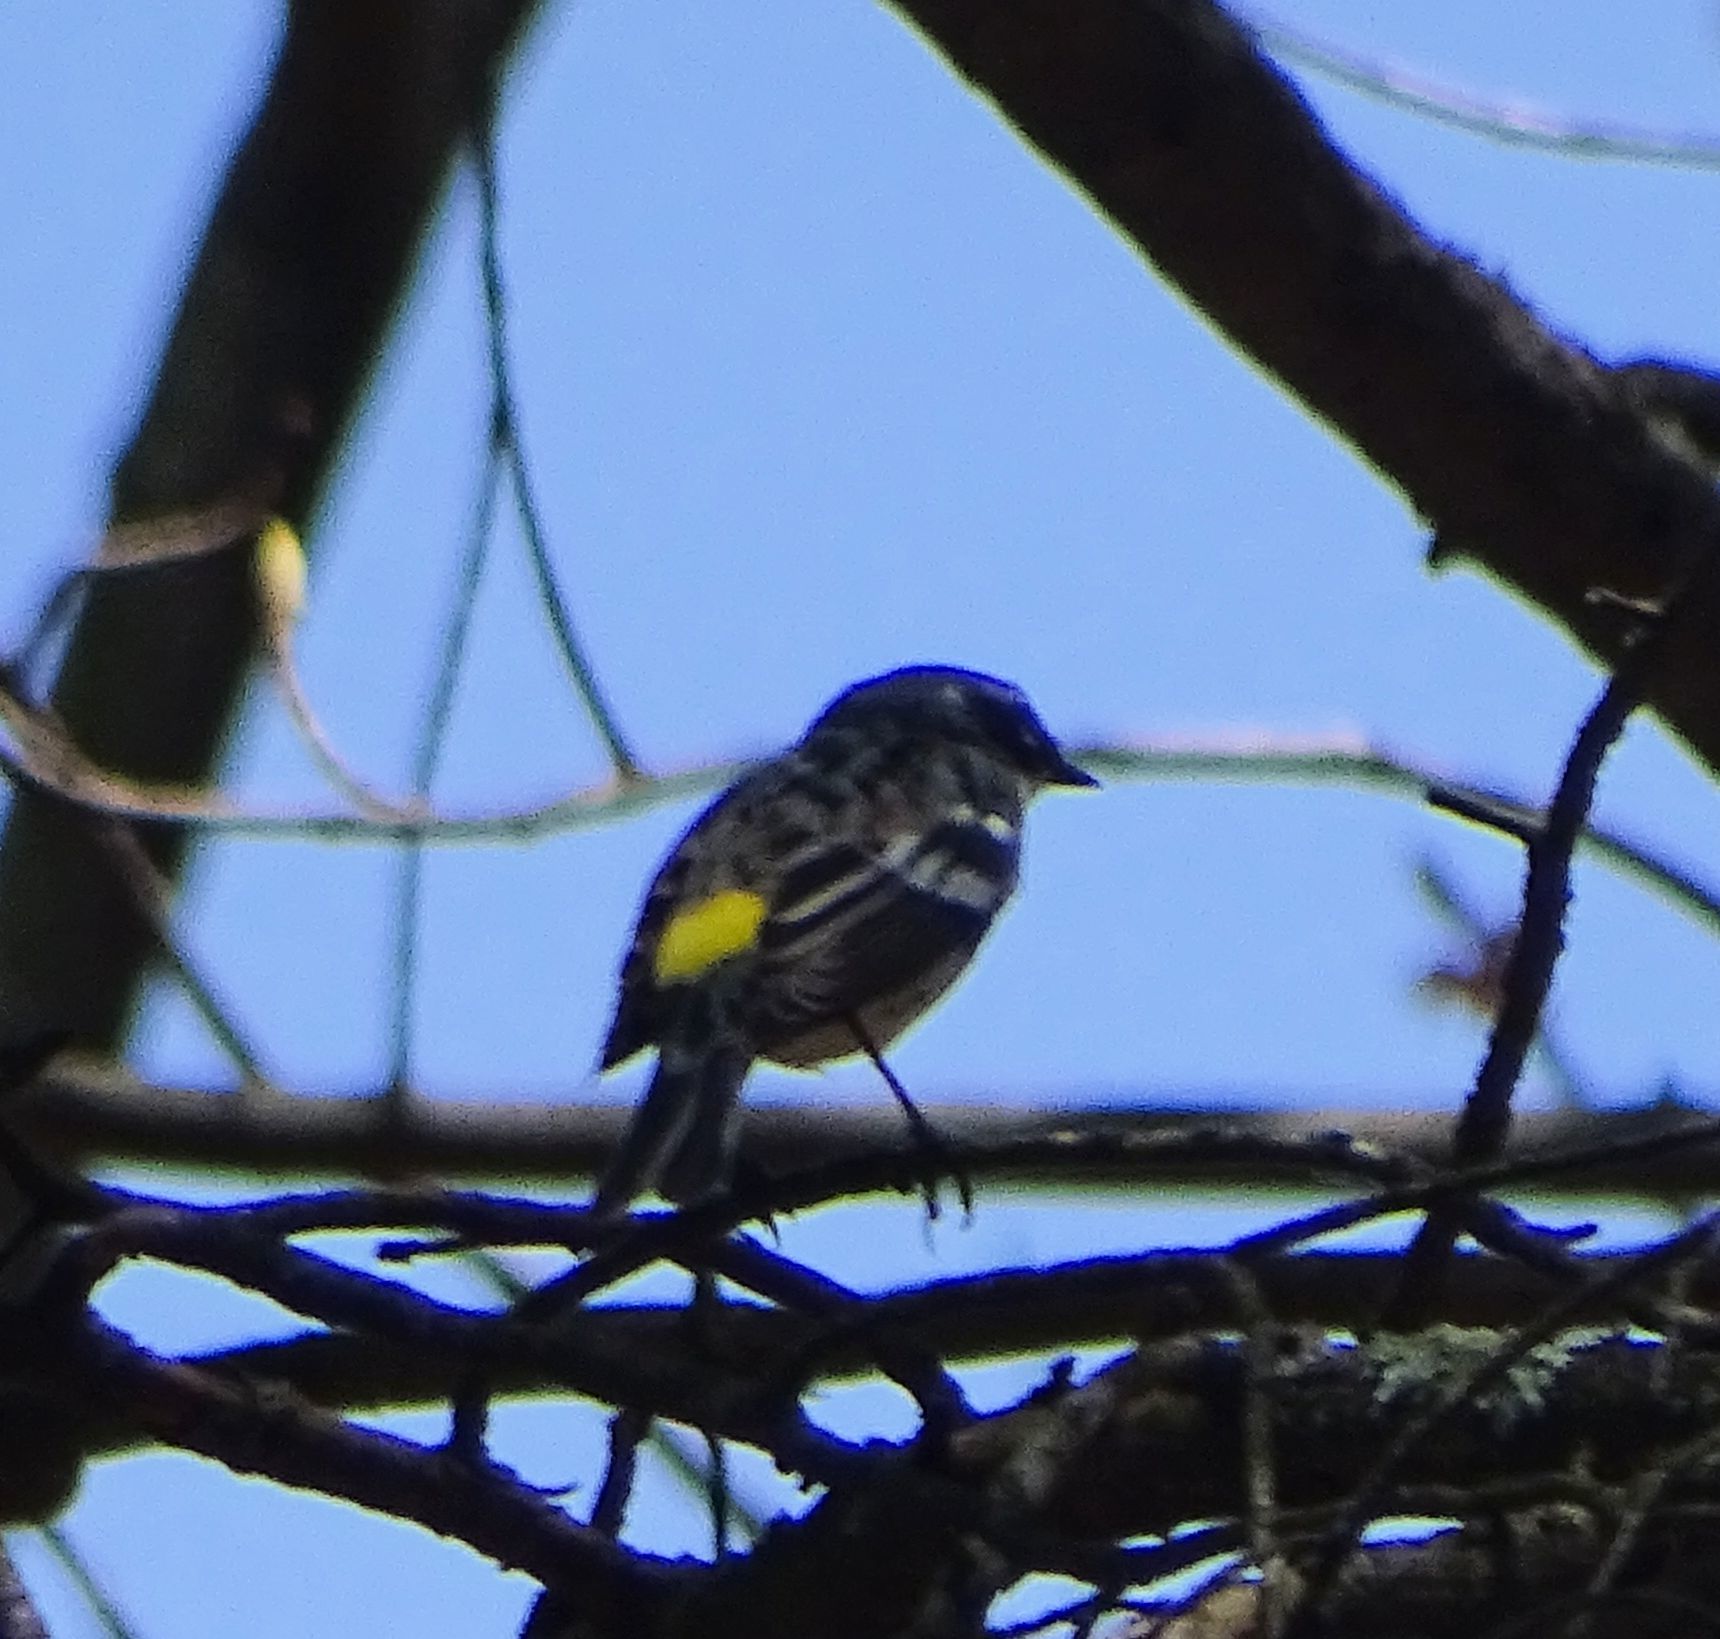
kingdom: Animalia
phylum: Chordata
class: Aves
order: Passeriformes
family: Parulidae
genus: Setophaga
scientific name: Setophaga coronata
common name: Myrtle warbler
